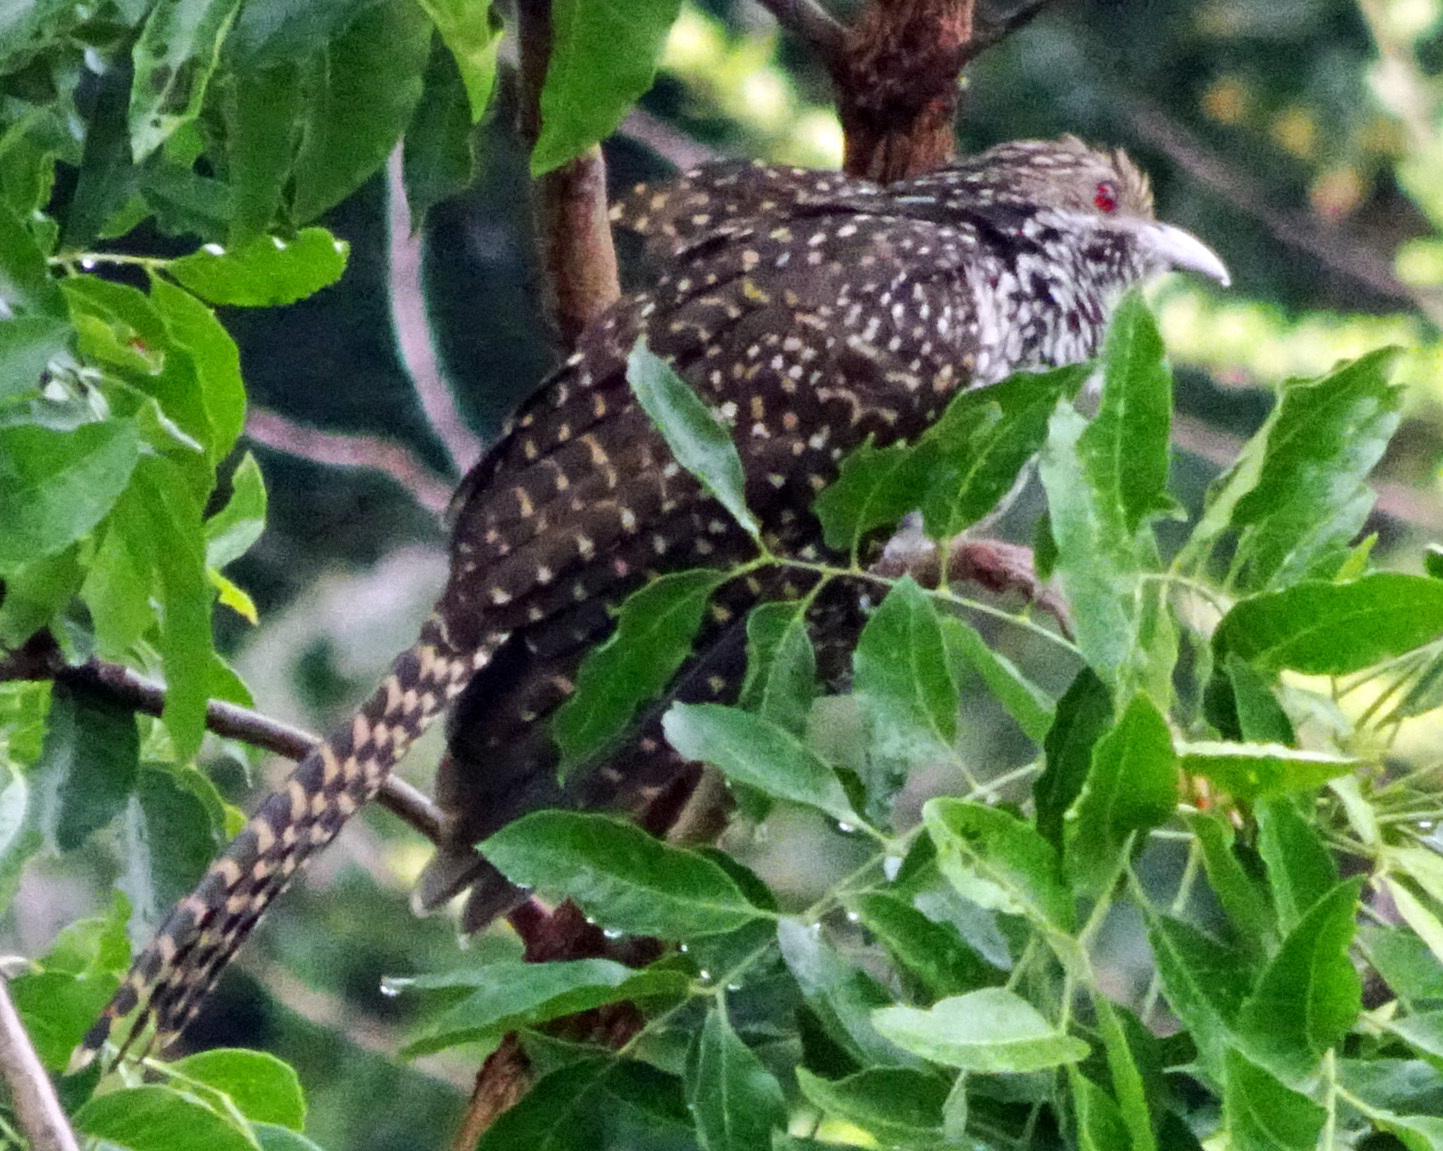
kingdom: Animalia
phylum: Chordata
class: Aves
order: Cuculiformes
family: Cuculidae
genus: Eudynamys
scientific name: Eudynamys scolopaceus
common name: Asian koel
